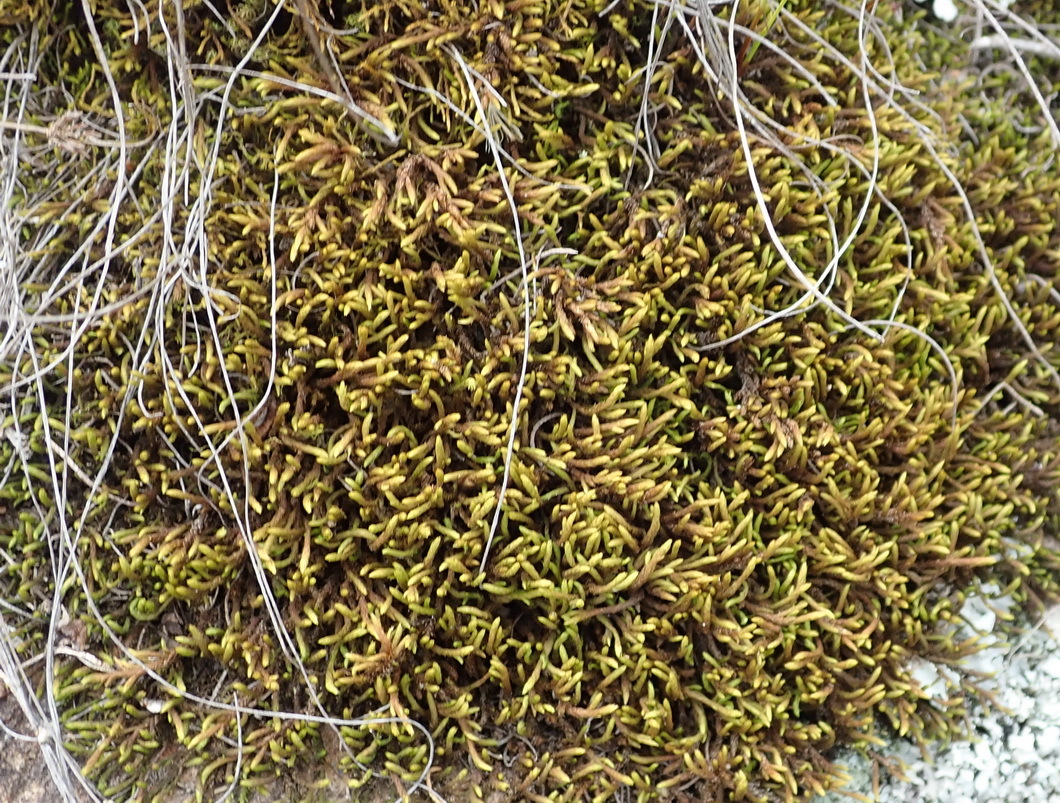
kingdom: Plantae
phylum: Bryophyta
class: Bryopsida
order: Hedwigiales
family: Hedwigiaceae
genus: Braunia
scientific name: Braunia secunda
